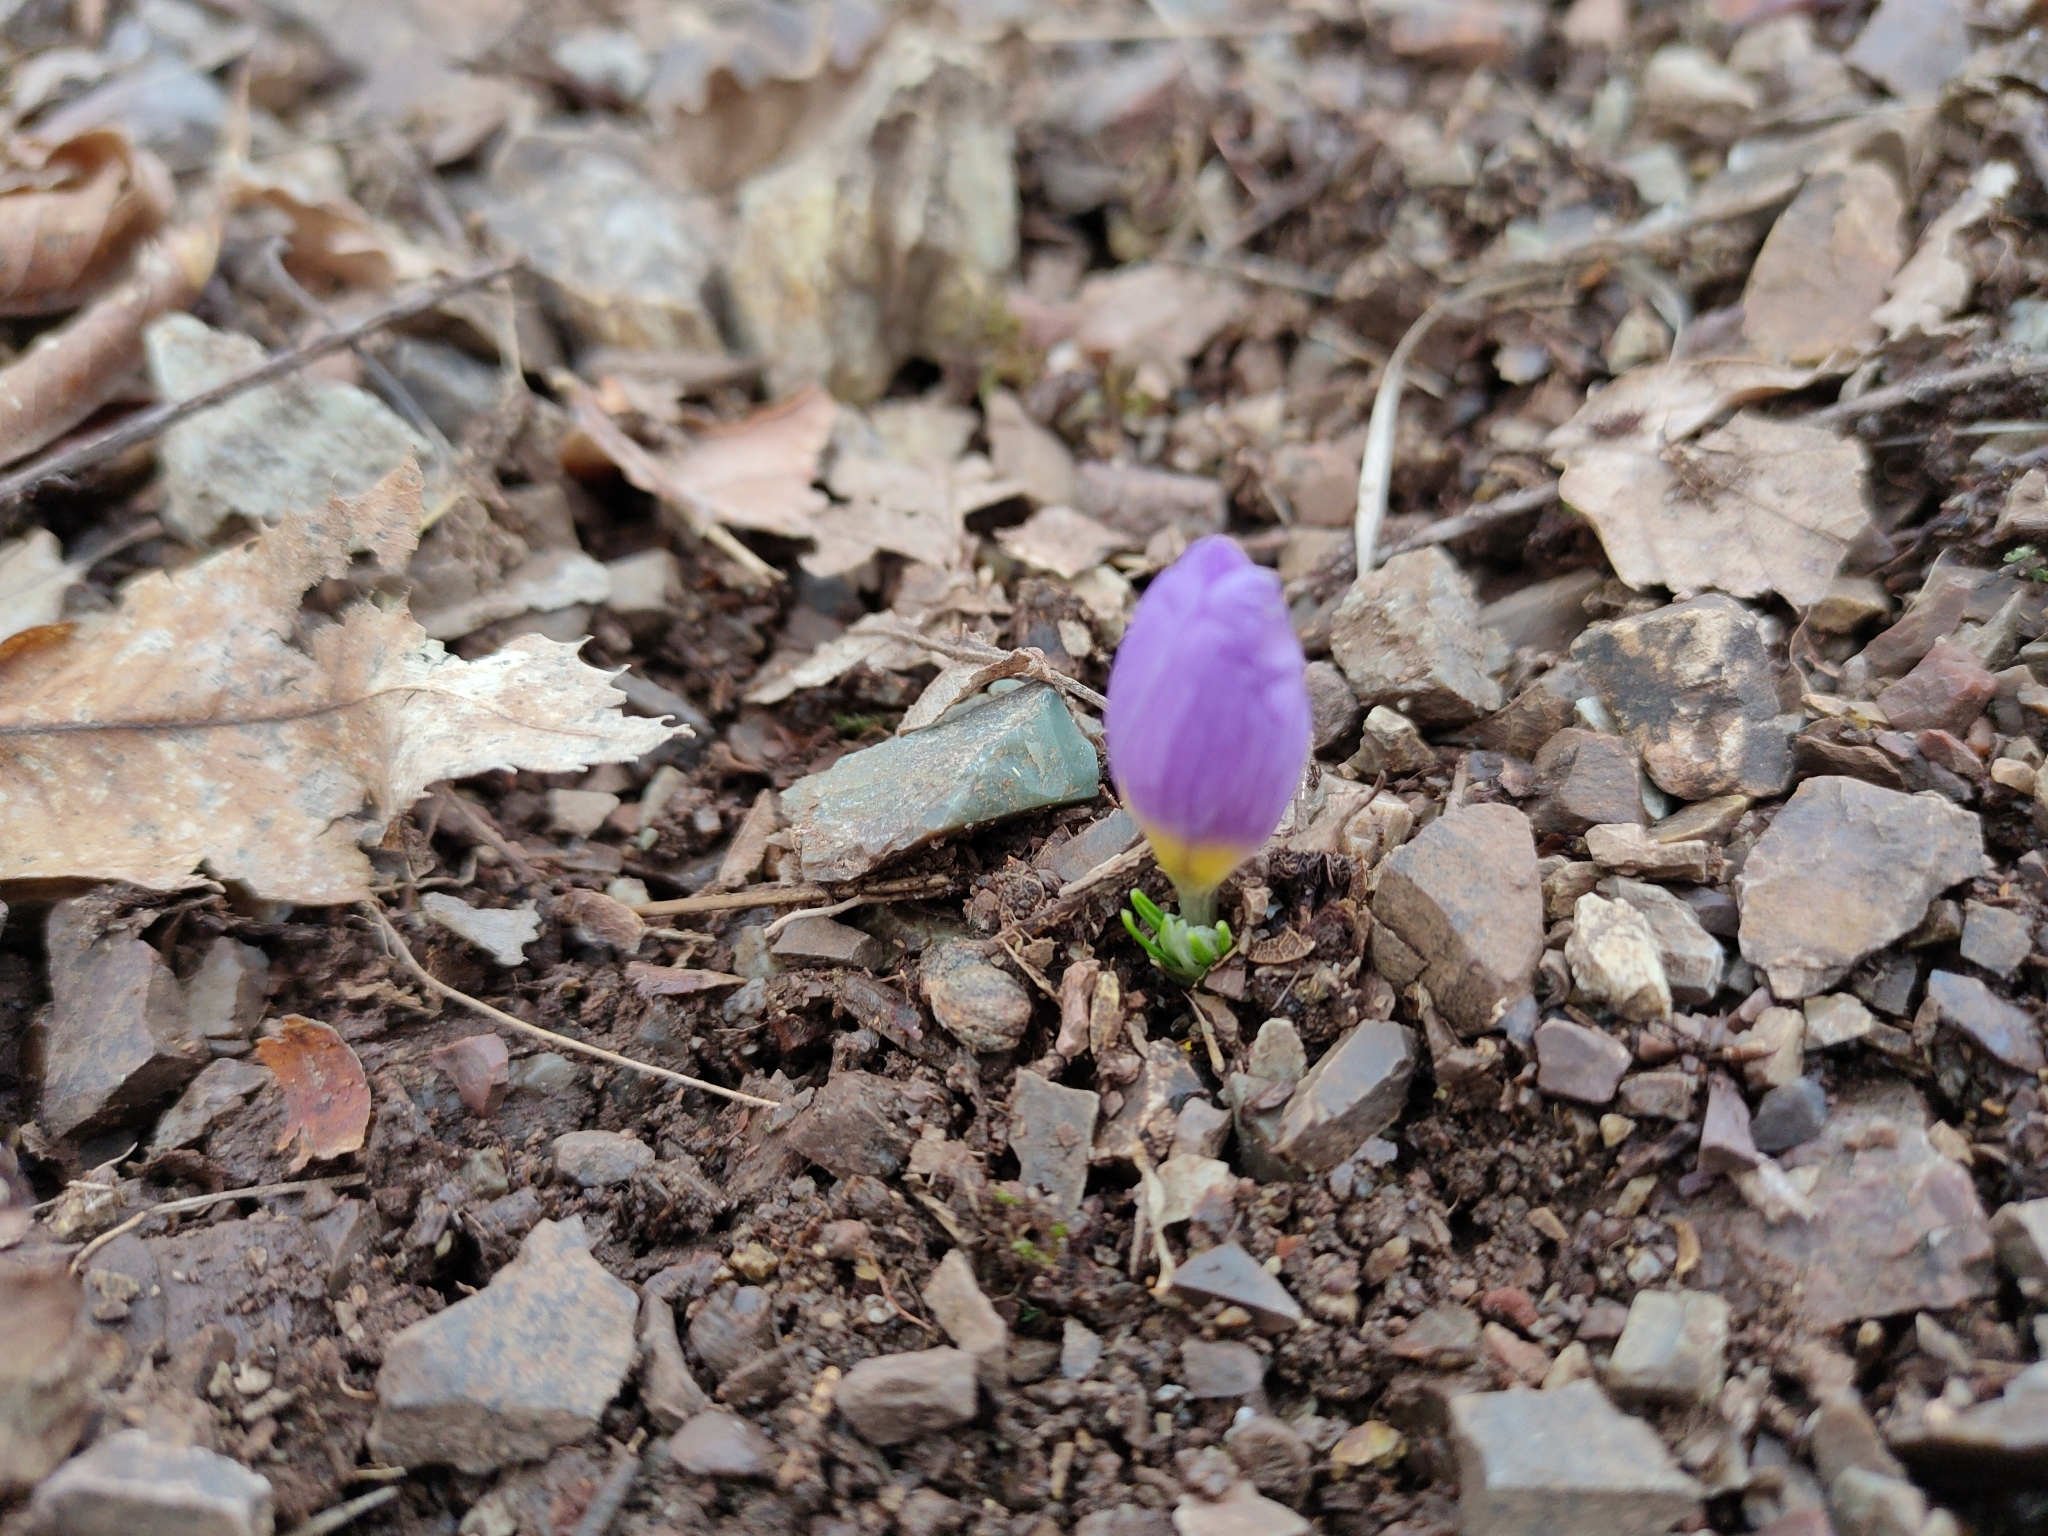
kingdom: Plantae
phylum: Tracheophyta
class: Liliopsida
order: Asparagales
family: Iridaceae
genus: Crocus
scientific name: Crocus nivalis
